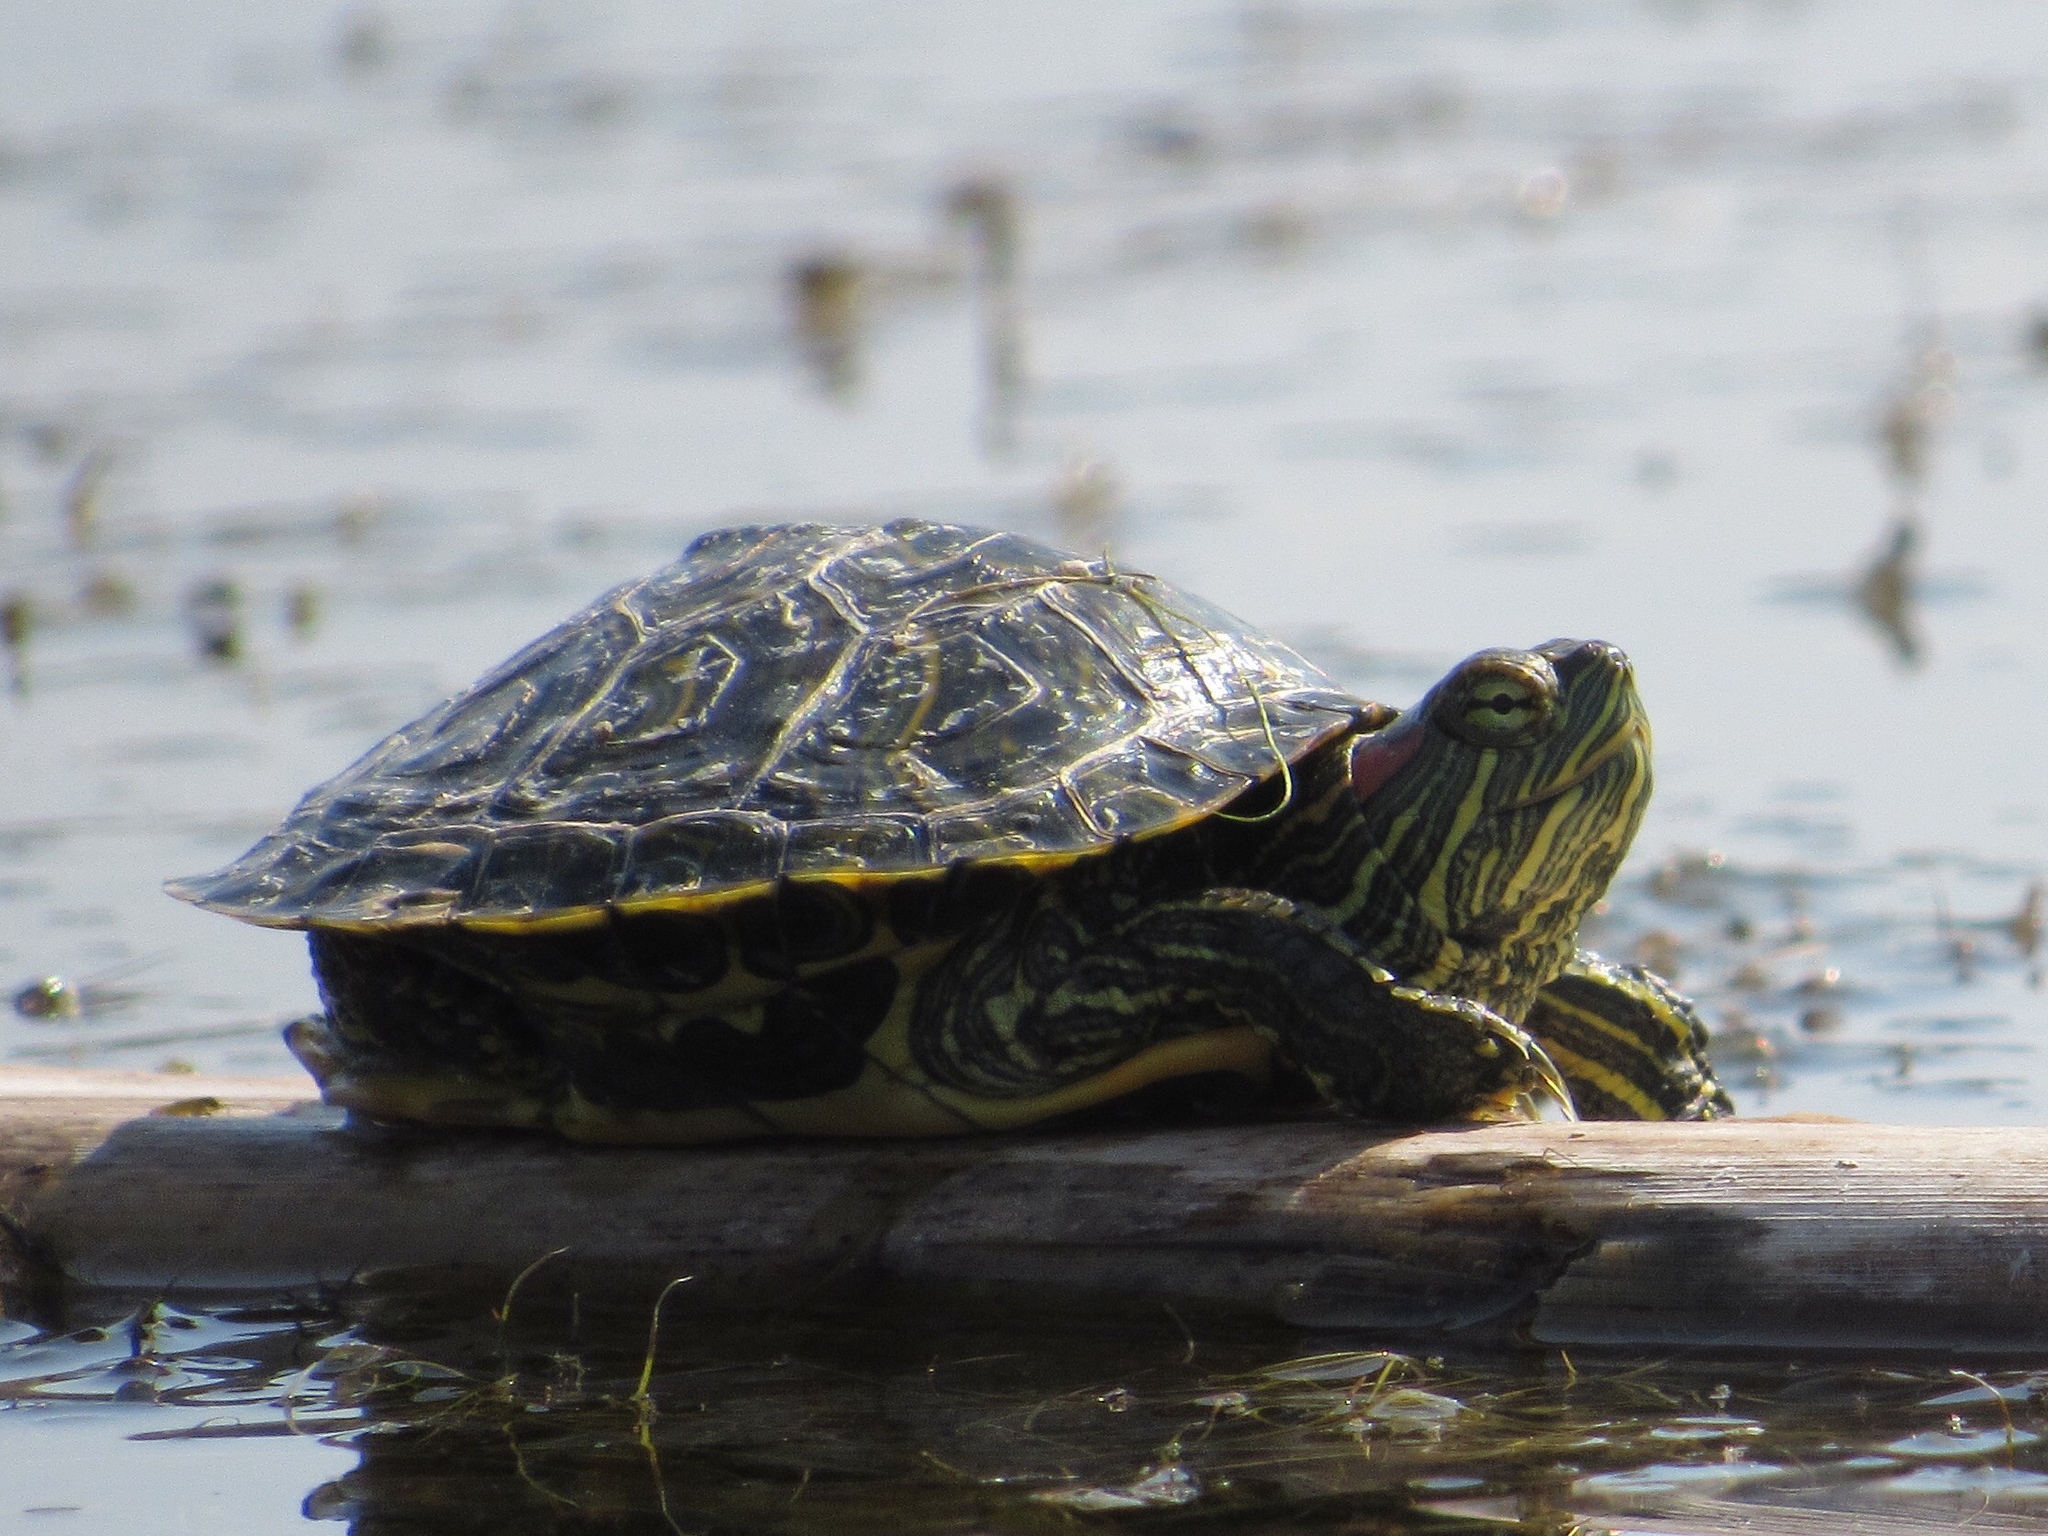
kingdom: Animalia
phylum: Chordata
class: Testudines
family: Emydidae
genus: Trachemys
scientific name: Trachemys scripta
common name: Slider
